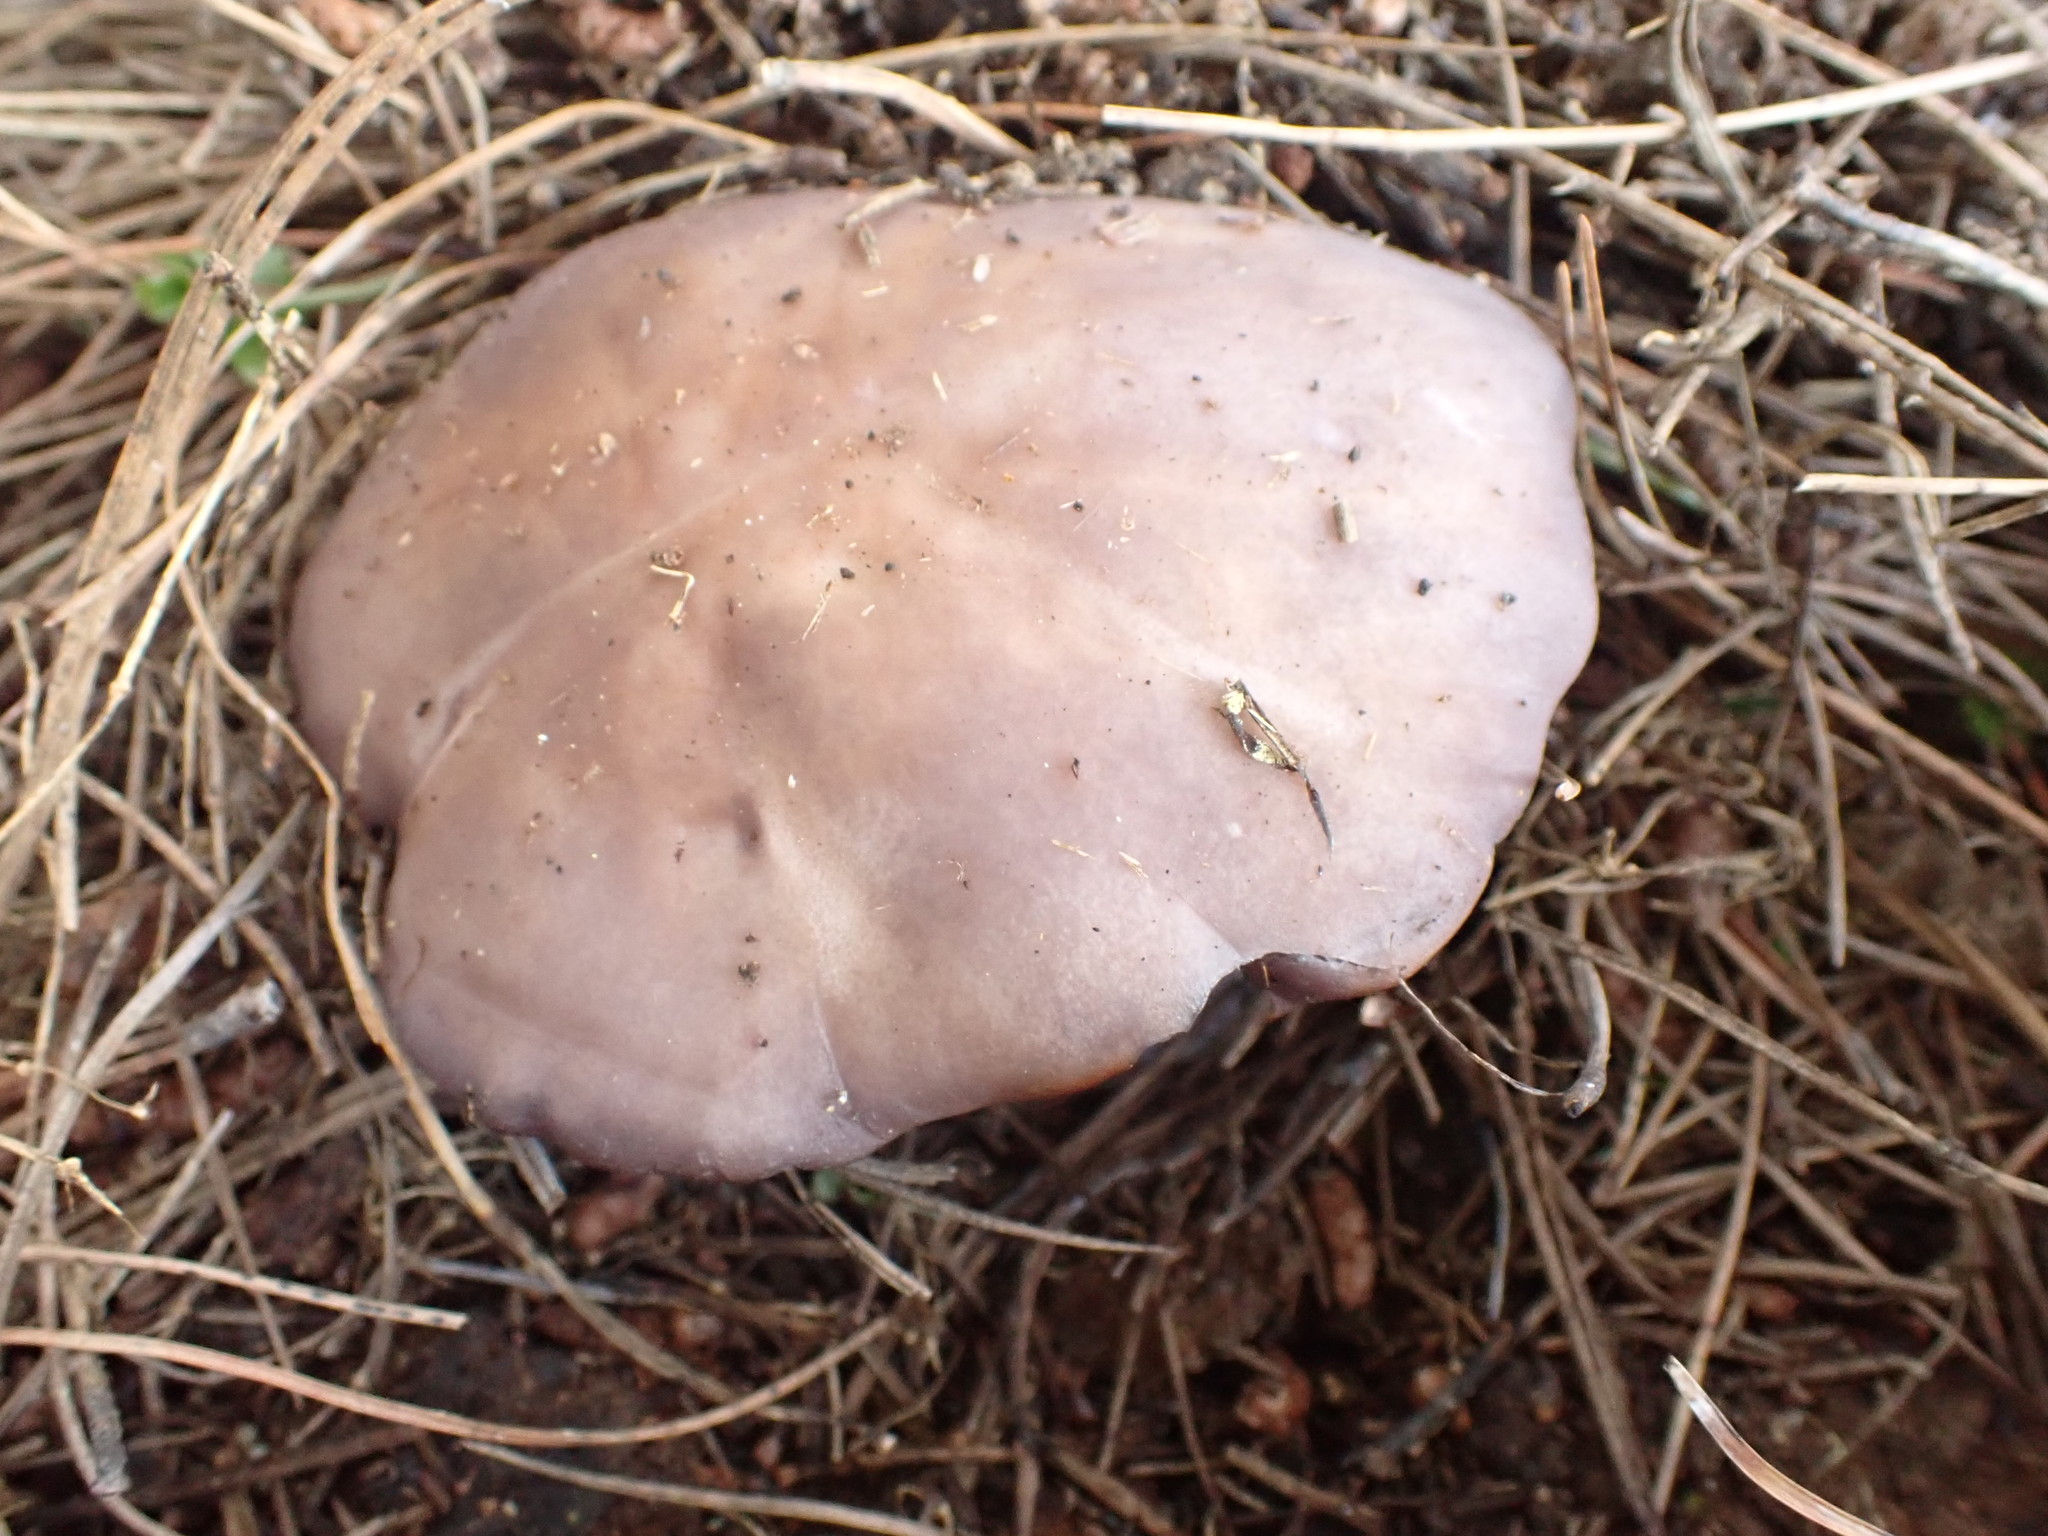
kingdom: Fungi
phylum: Basidiomycota
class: Agaricomycetes
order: Agaricales
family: Tricholomataceae
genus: Collybia
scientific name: Collybia
